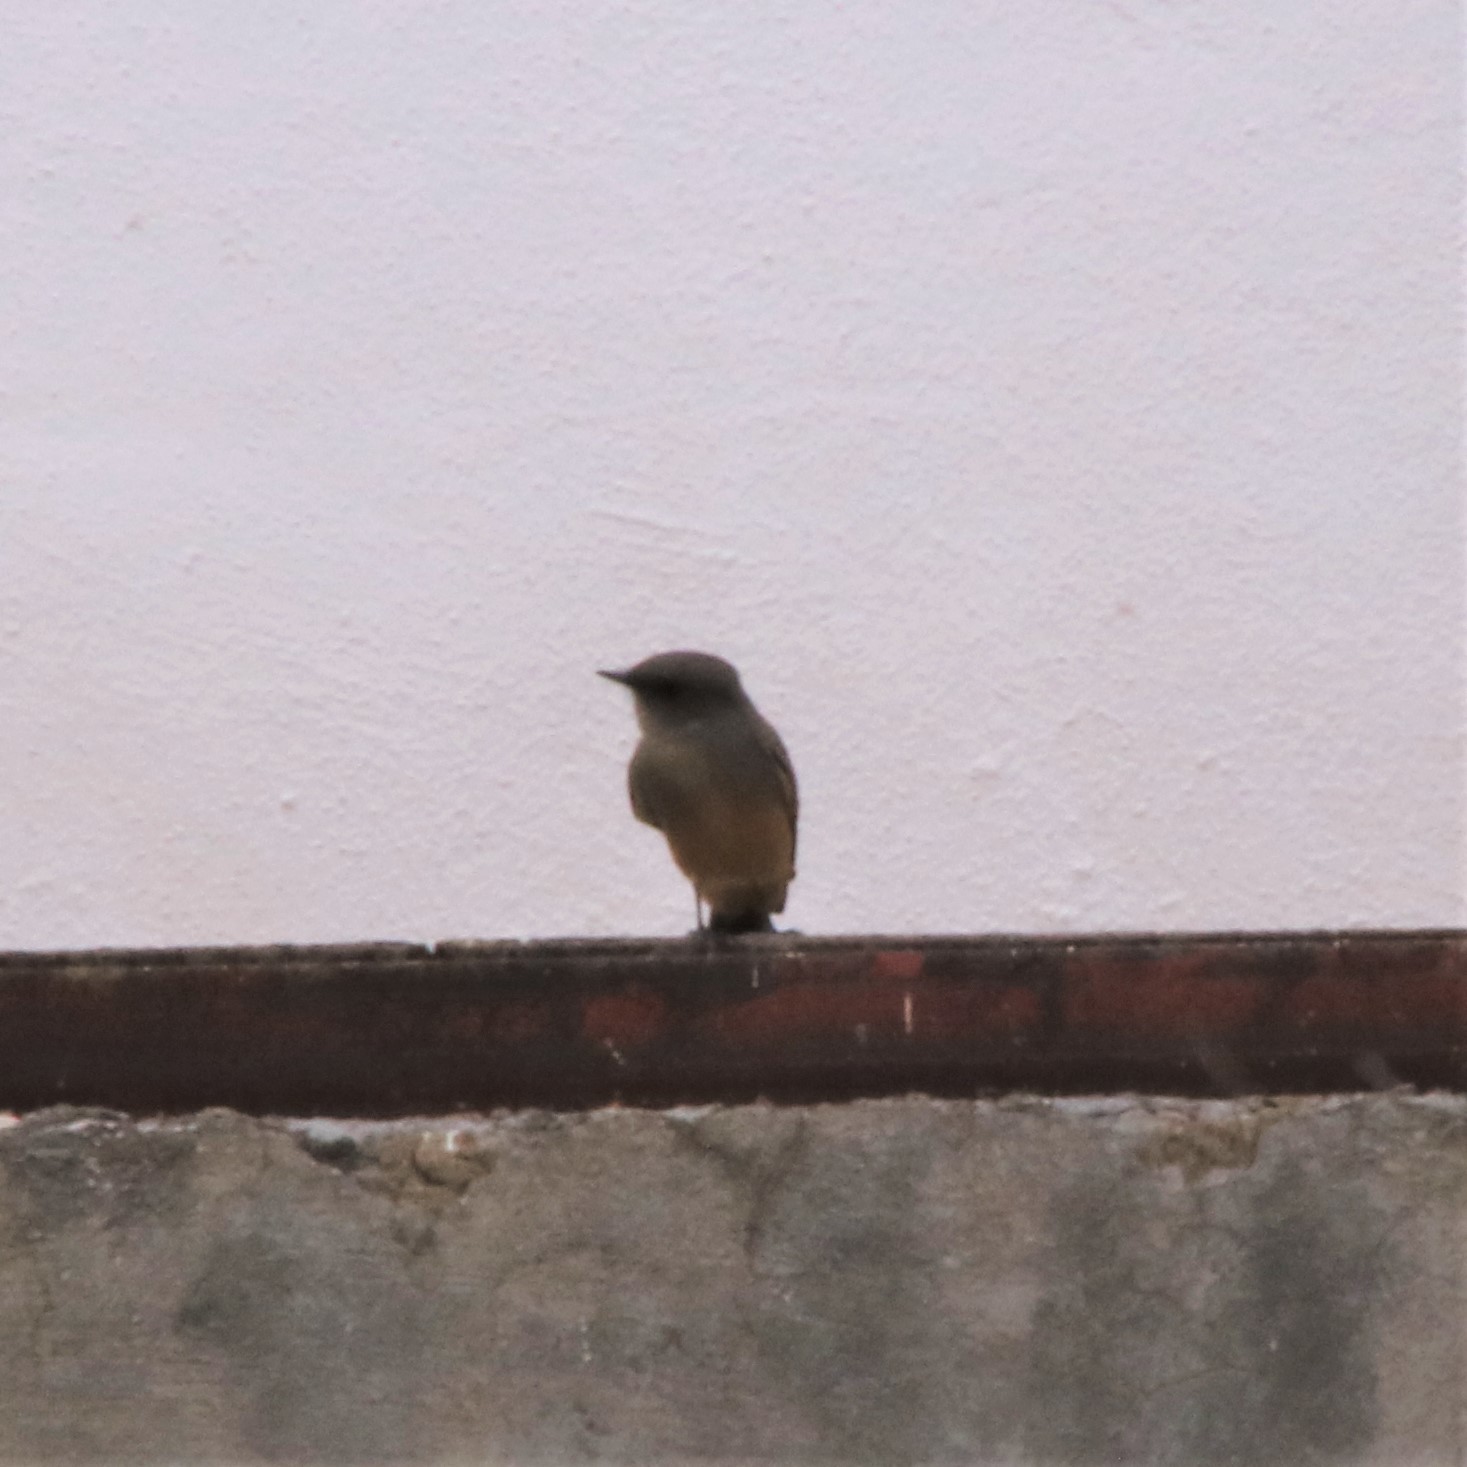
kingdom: Animalia
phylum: Chordata
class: Aves
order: Passeriformes
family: Tyrannidae
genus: Sayornis
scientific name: Sayornis saya
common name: Say's phoebe
